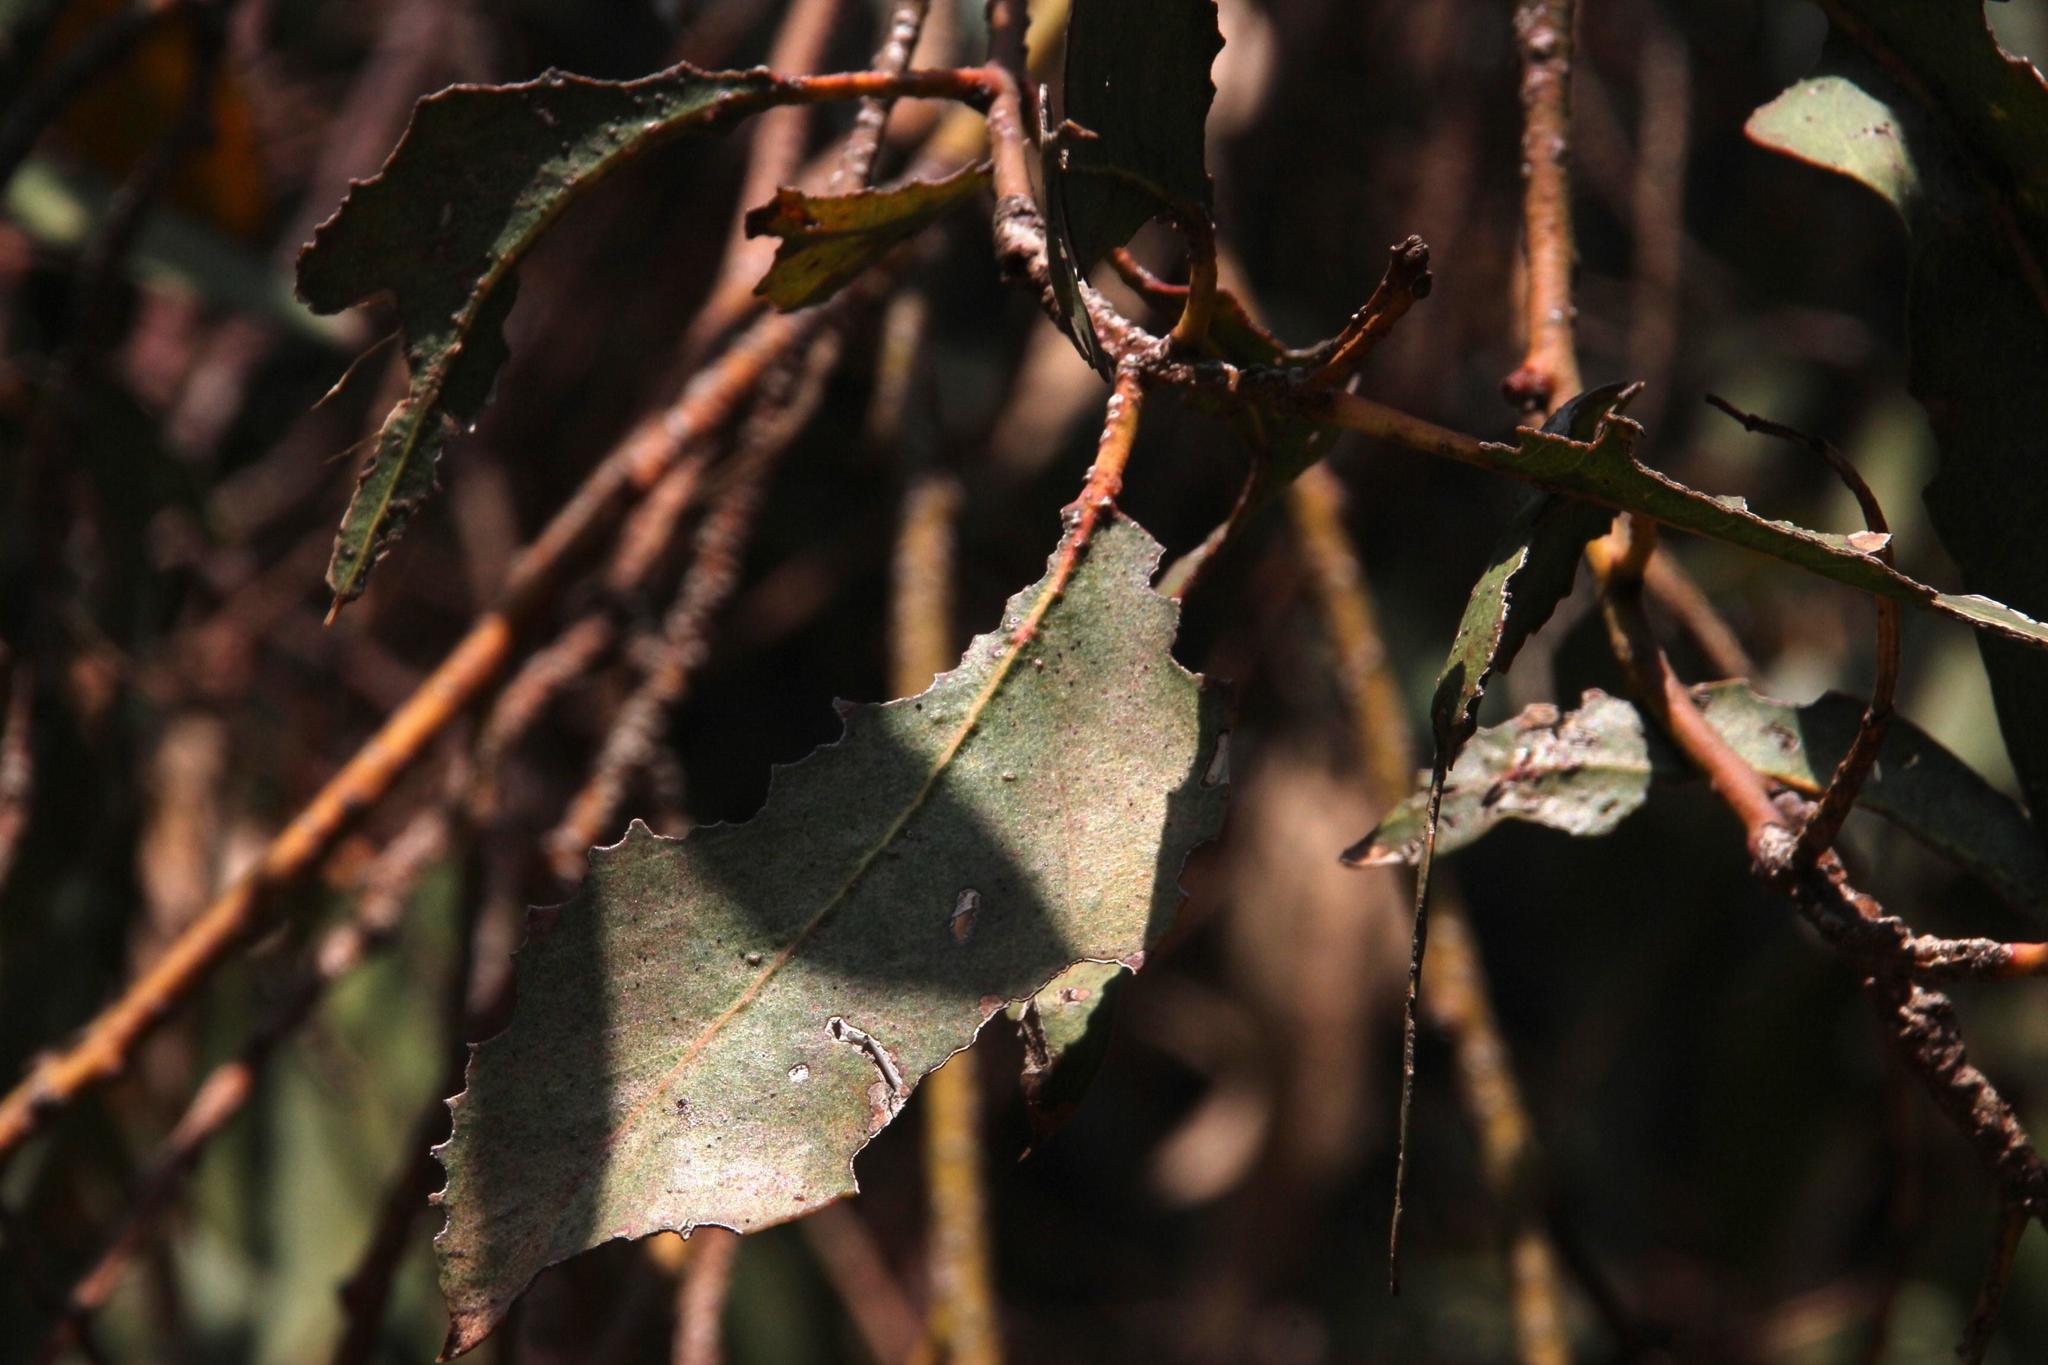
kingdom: Plantae
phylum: Tracheophyta
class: Magnoliopsida
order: Myrtales
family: Myrtaceae
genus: Eucalyptus
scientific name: Eucalyptus globulus
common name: Southern blue-gum
